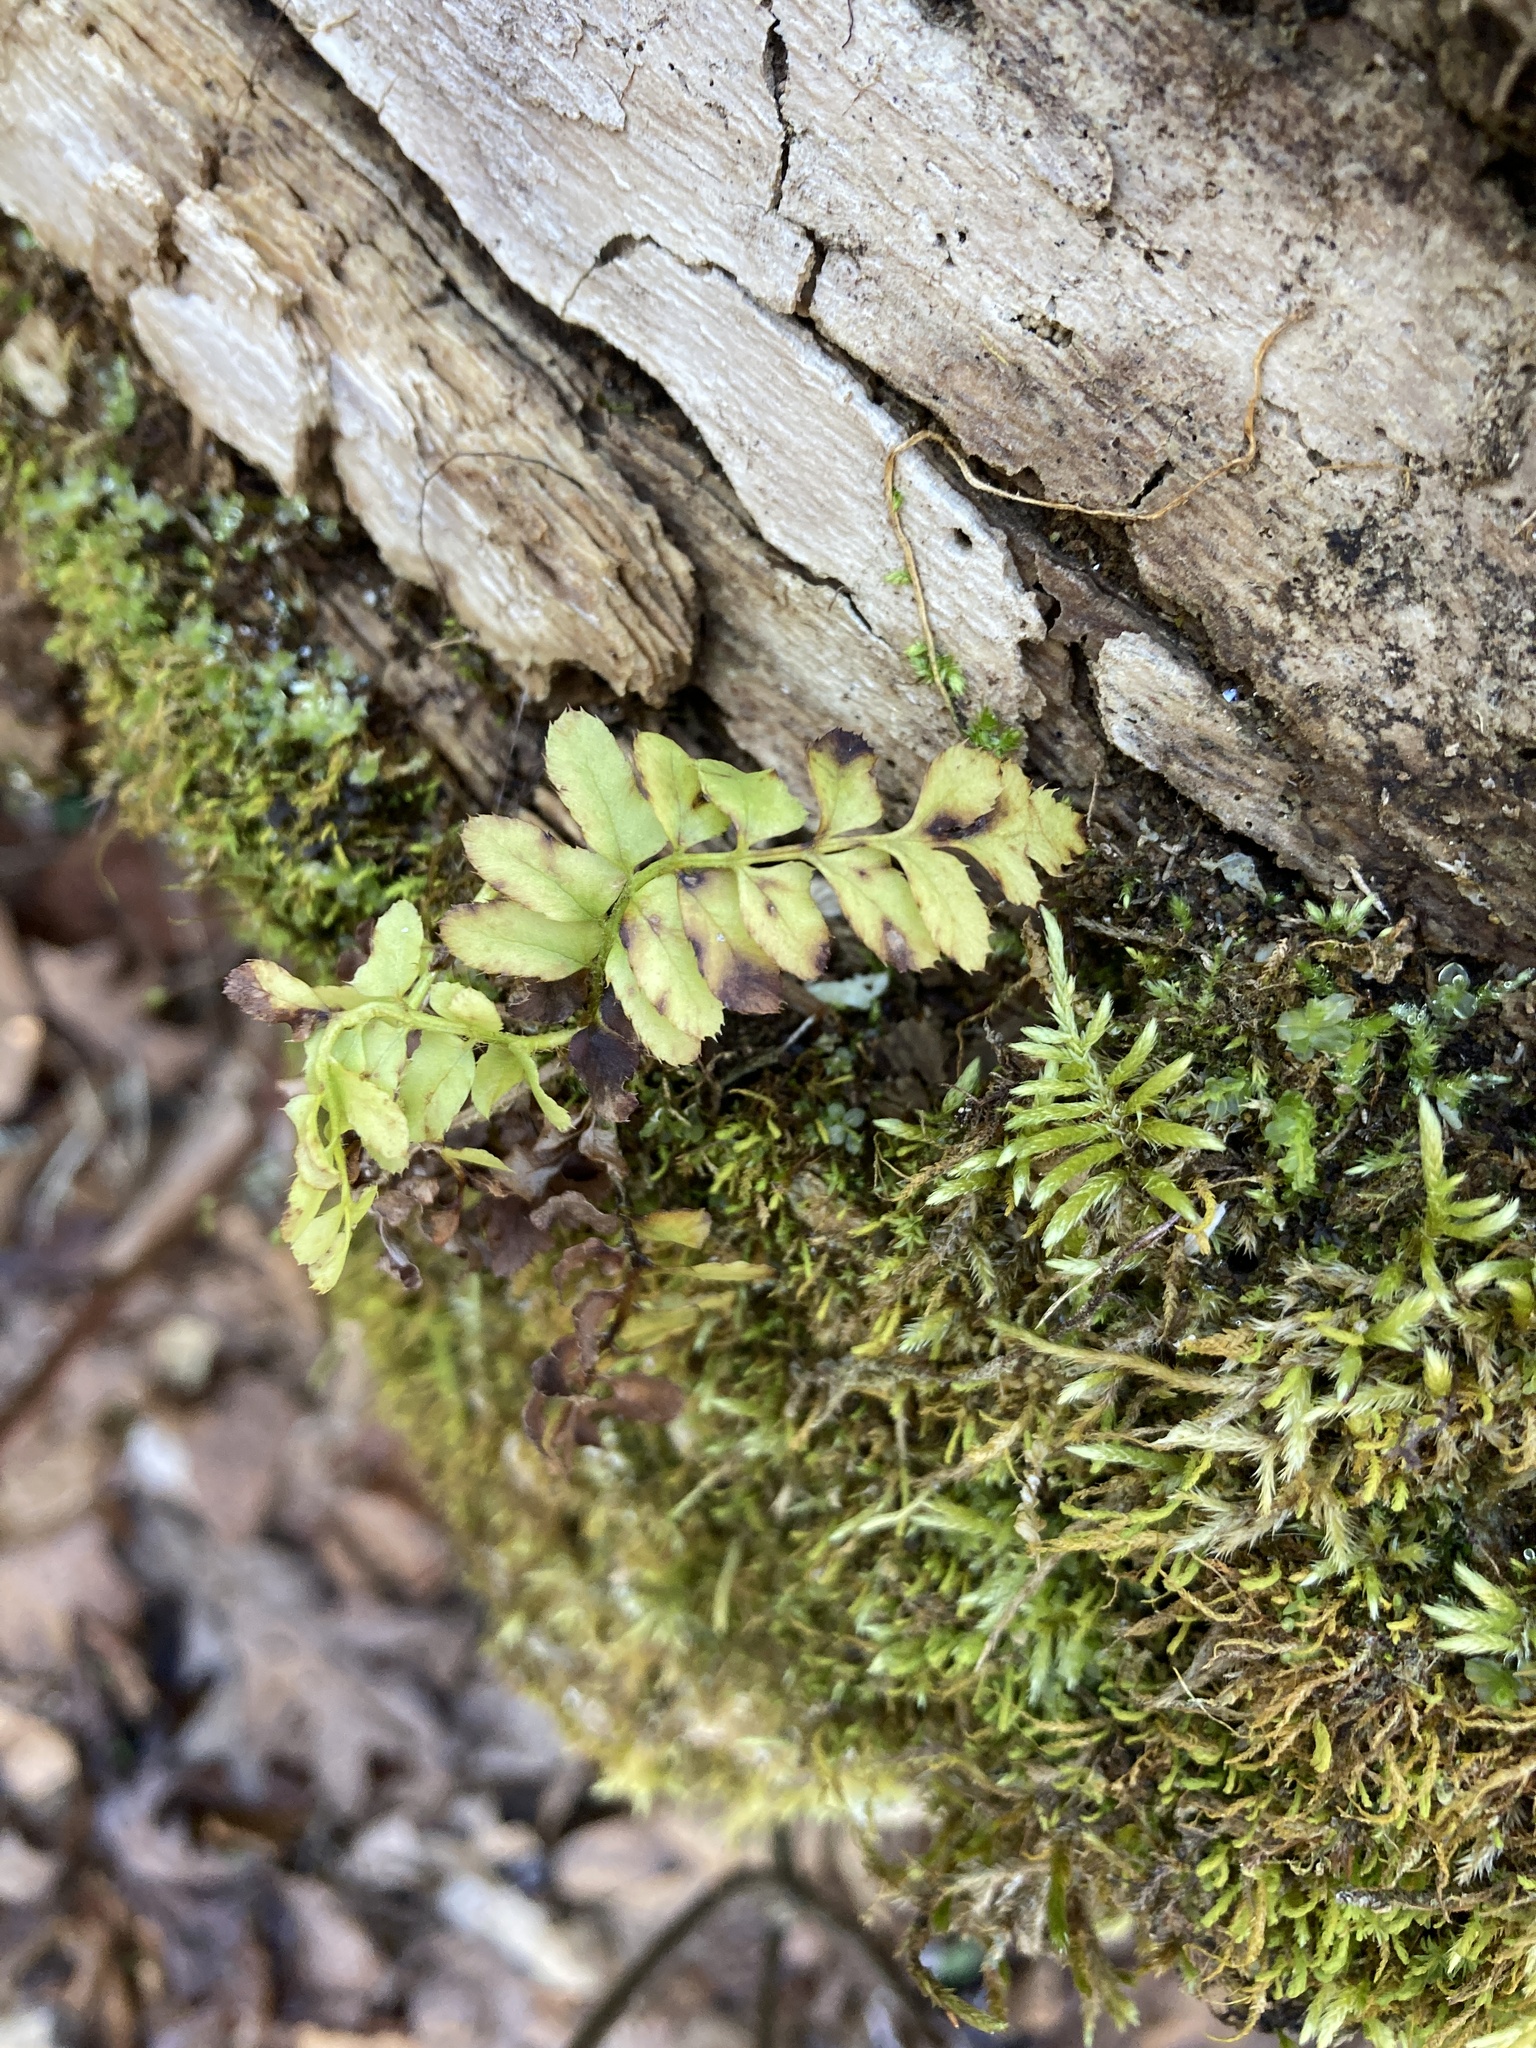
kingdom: Plantae
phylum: Tracheophyta
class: Polypodiopsida
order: Polypodiales
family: Dryopteridaceae
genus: Polystichum
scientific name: Polystichum acrostichoides
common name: Christmas fern
